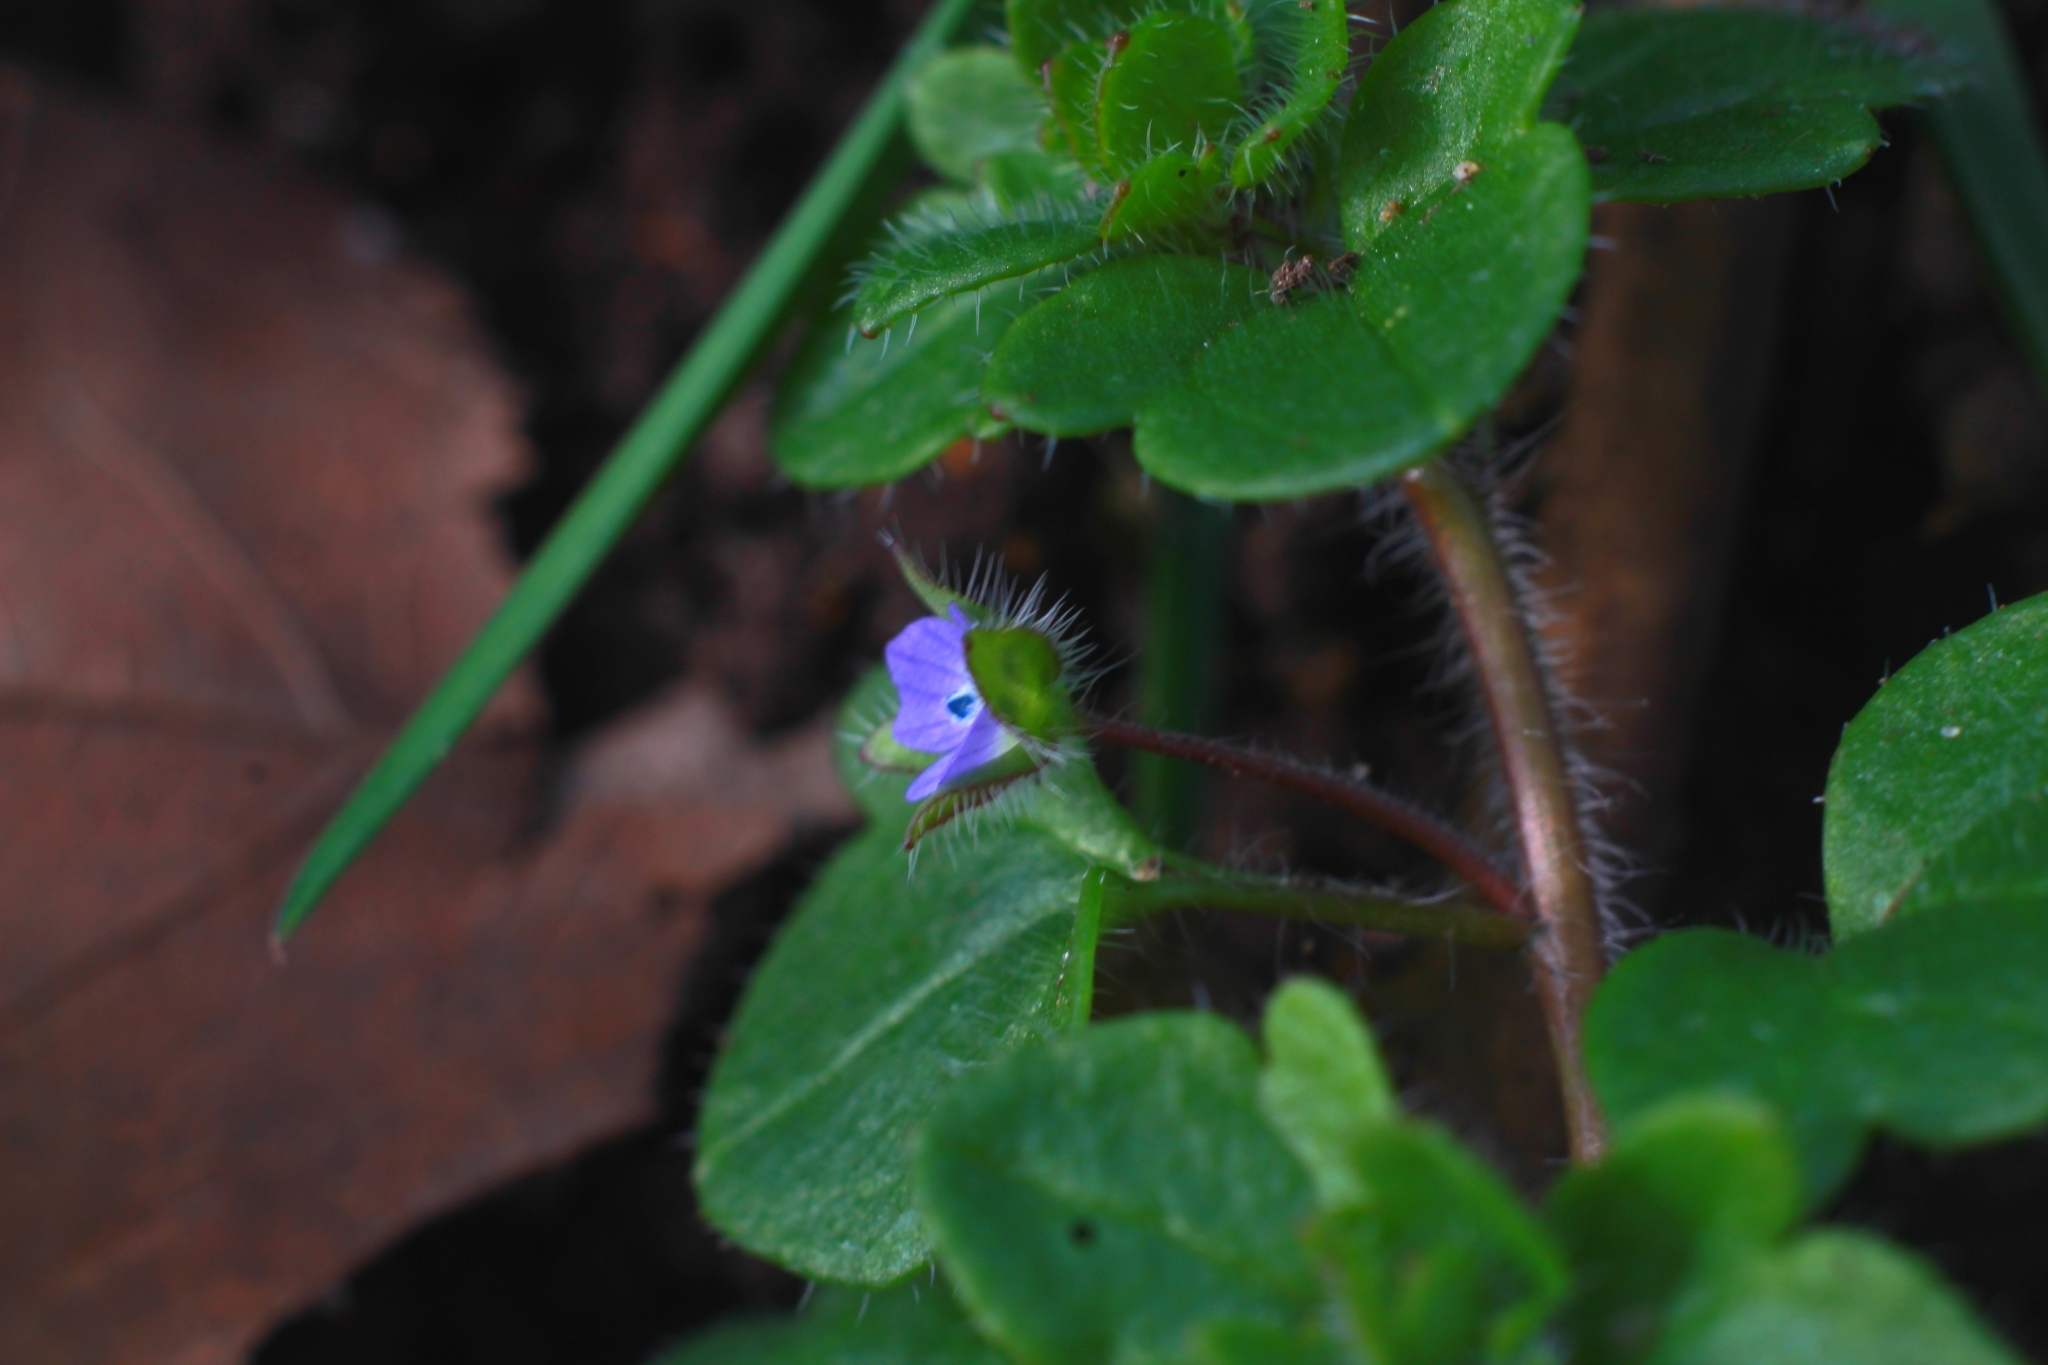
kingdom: Plantae
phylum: Tracheophyta
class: Magnoliopsida
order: Lamiales
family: Plantaginaceae
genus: Veronica
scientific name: Veronica hederifolia
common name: Ivy-leaved speedwell
